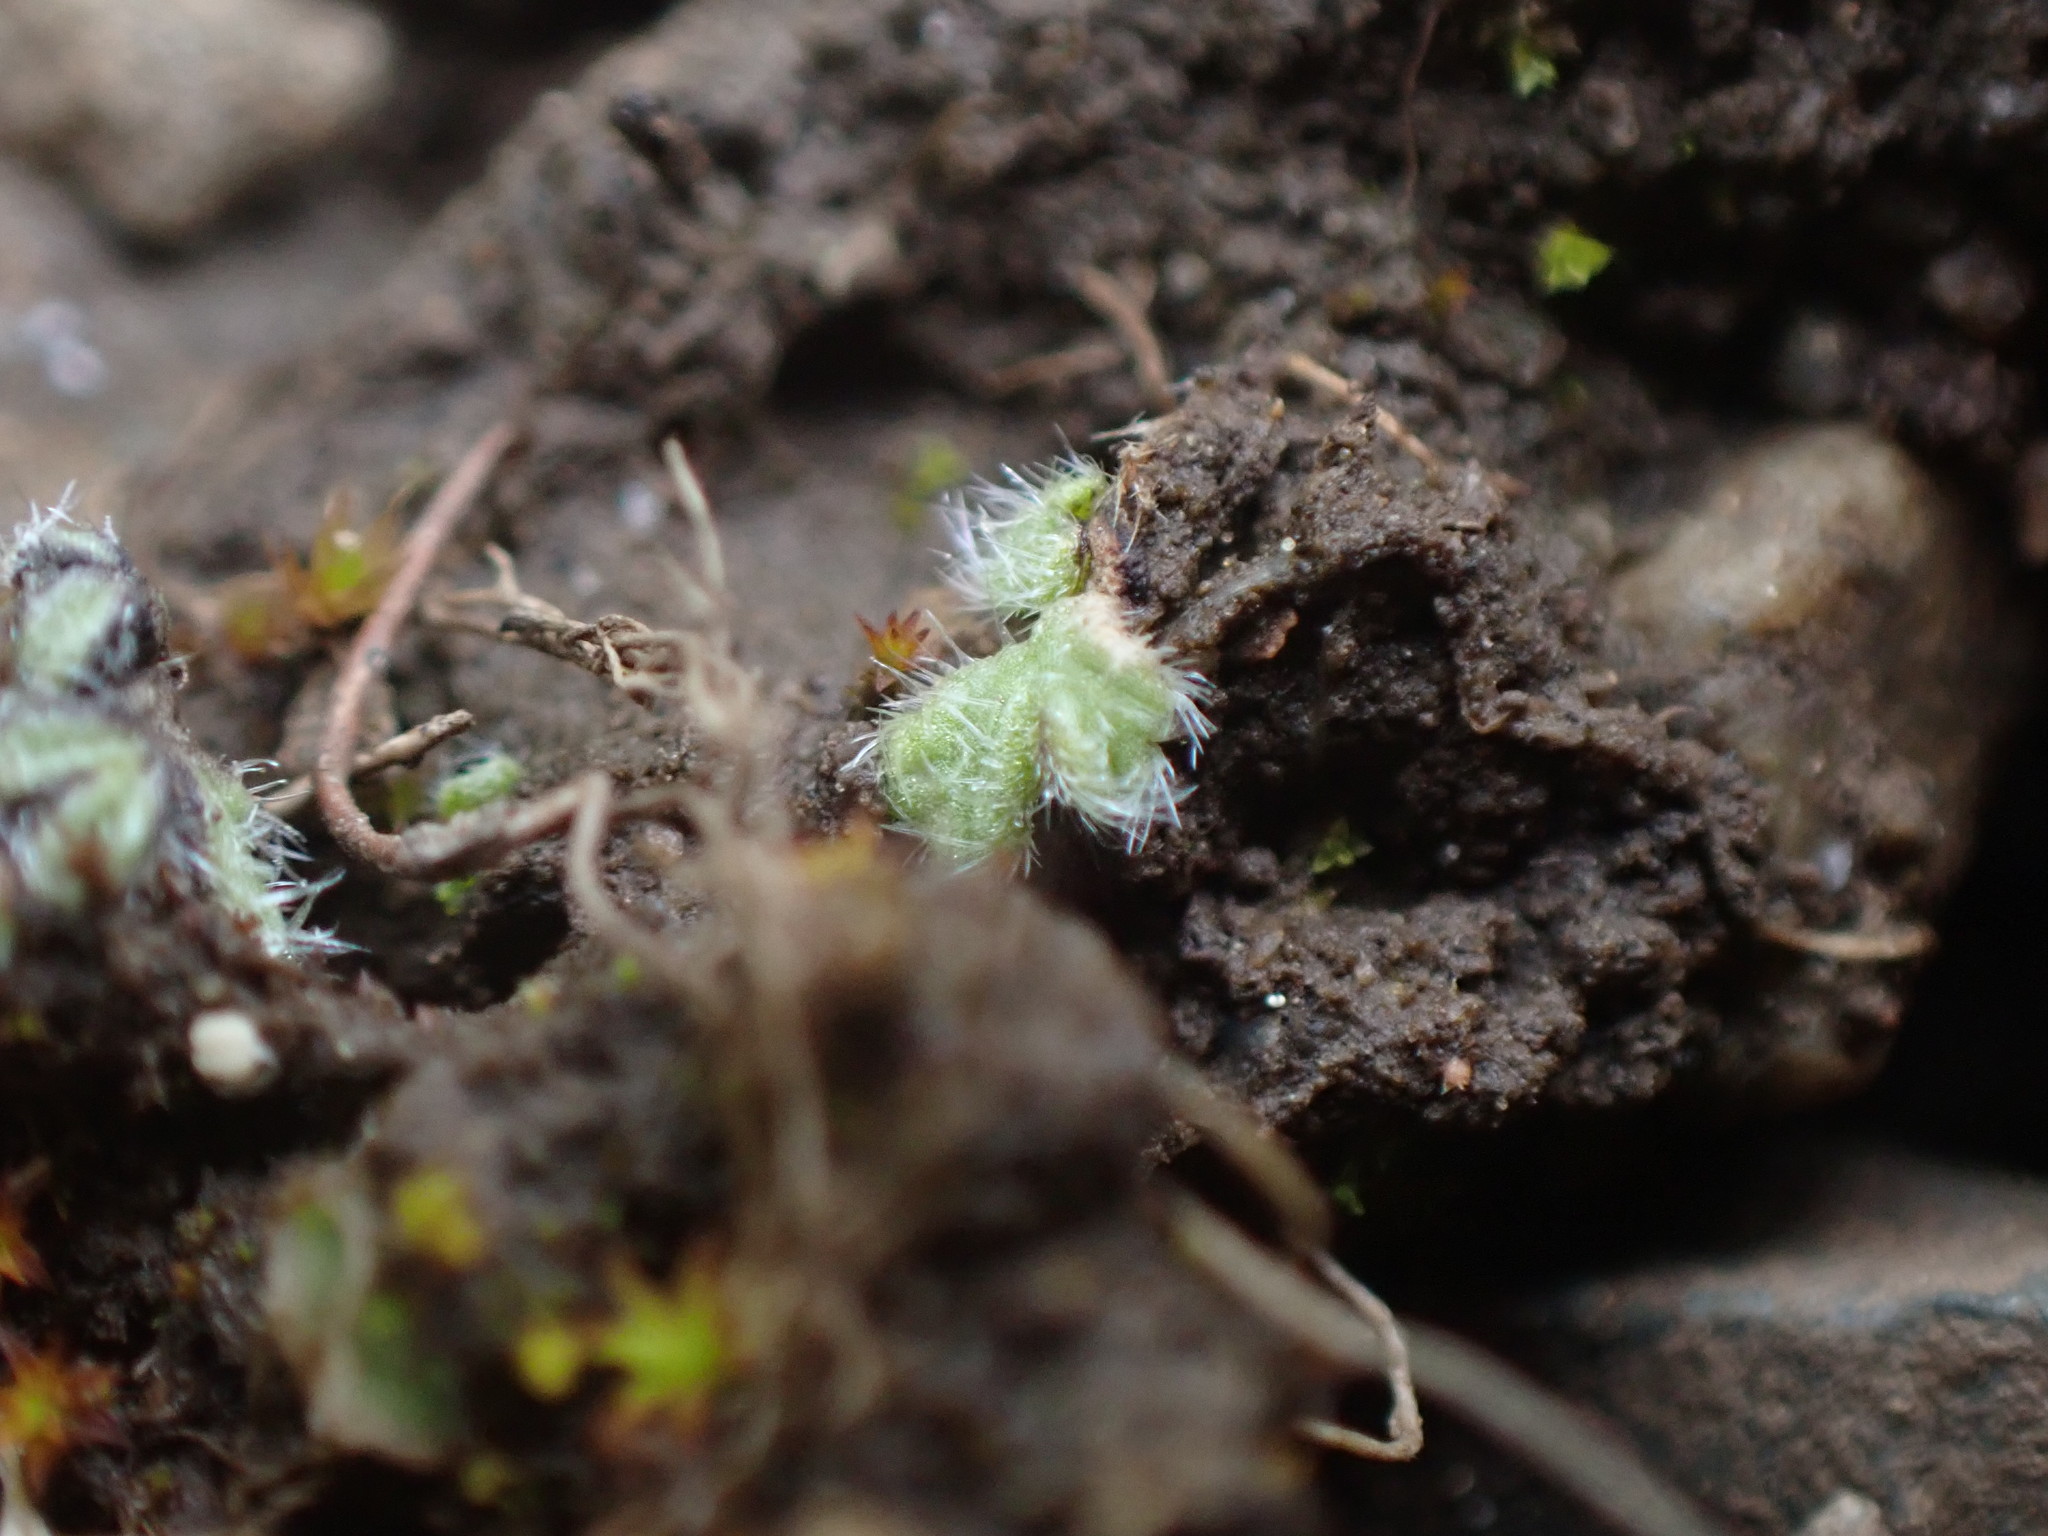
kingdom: Plantae
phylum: Marchantiophyta
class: Marchantiopsida
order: Marchantiales
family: Ricciaceae
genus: Riccia
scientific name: Riccia trichocarpa
